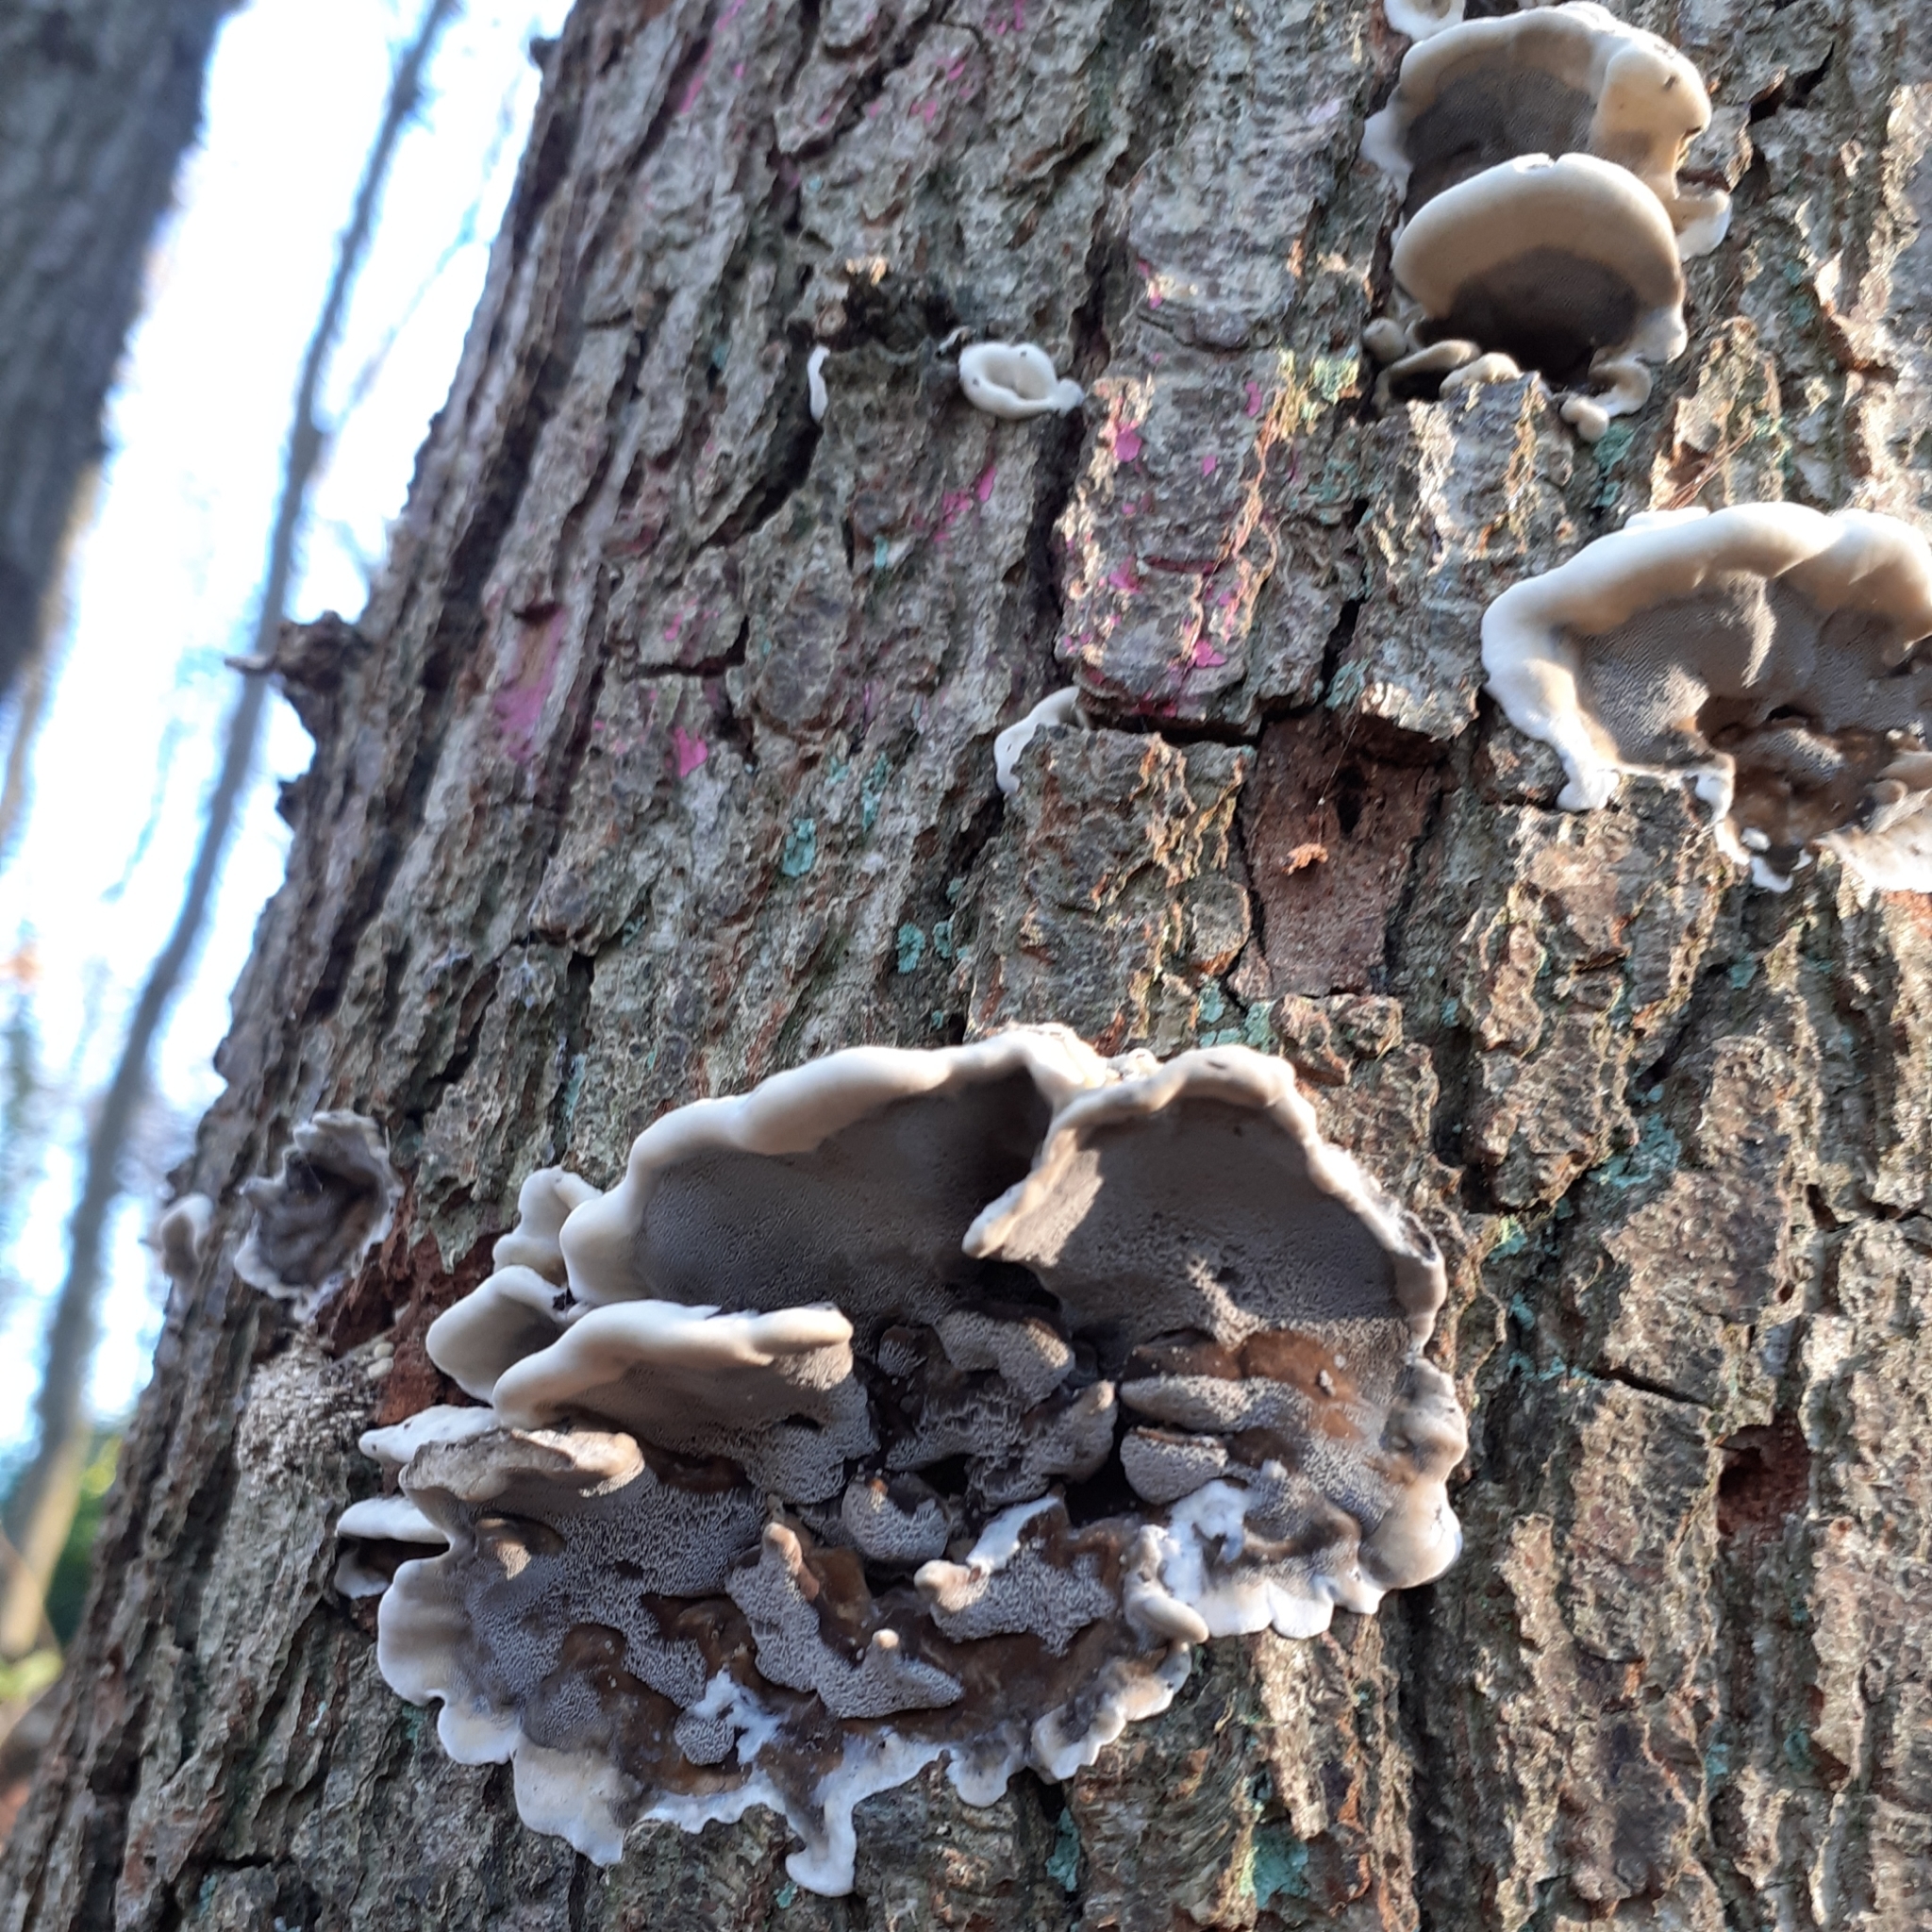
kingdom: Fungi
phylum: Basidiomycota
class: Agaricomycetes
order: Polyporales
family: Phanerochaetaceae
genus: Bjerkandera
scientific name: Bjerkandera adusta
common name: Smoky bracket
